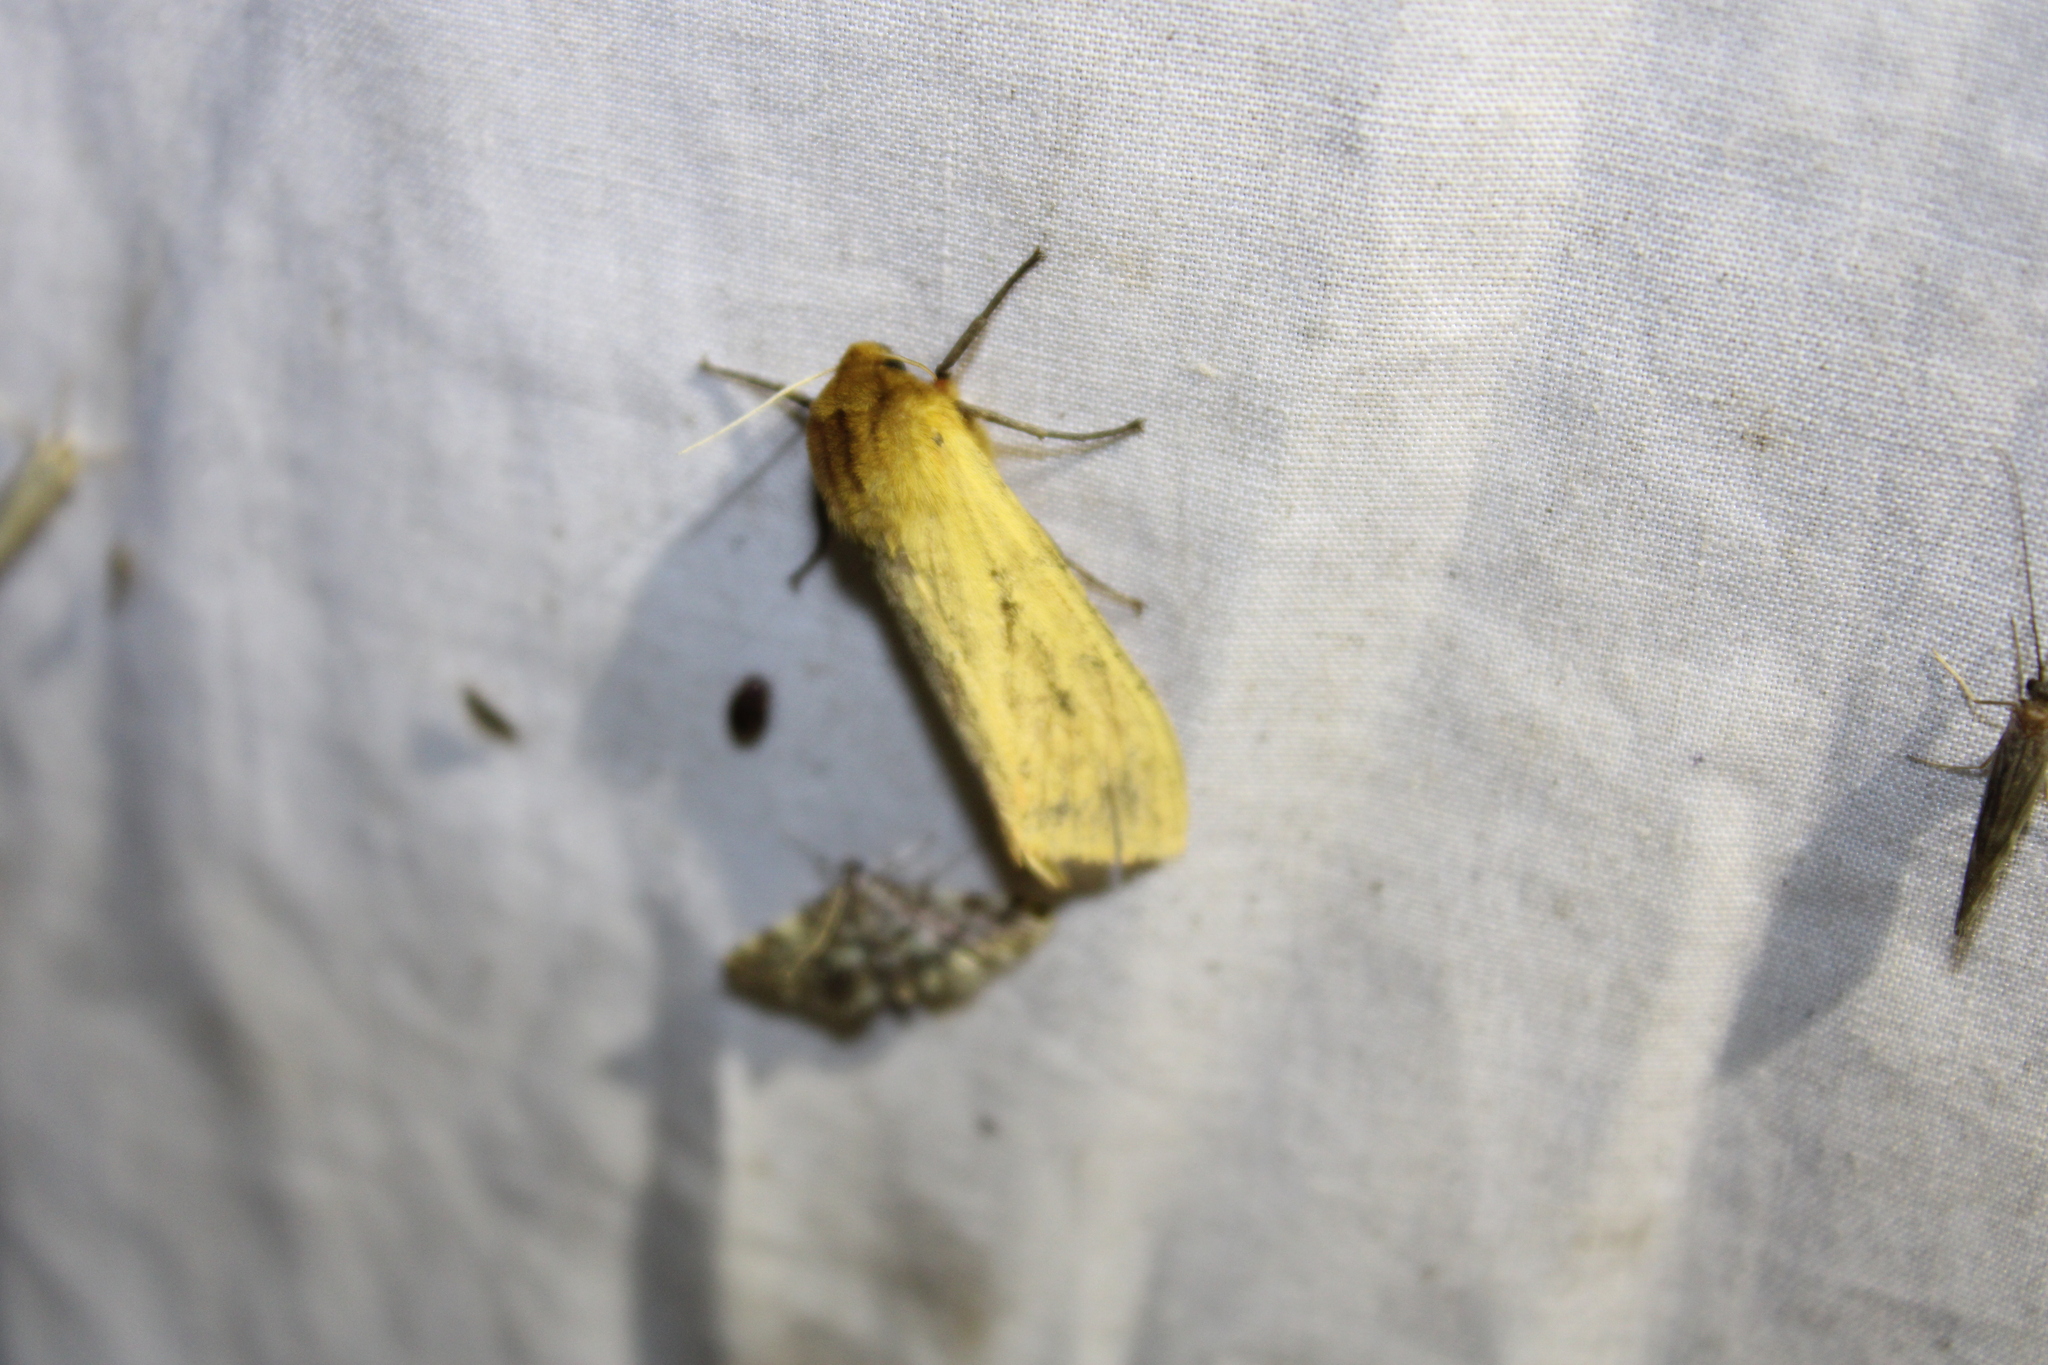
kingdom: Animalia
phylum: Arthropoda
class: Insecta
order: Lepidoptera
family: Erebidae
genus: Pyrrharctia
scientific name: Pyrrharctia isabella
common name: Isabella tiger moth
